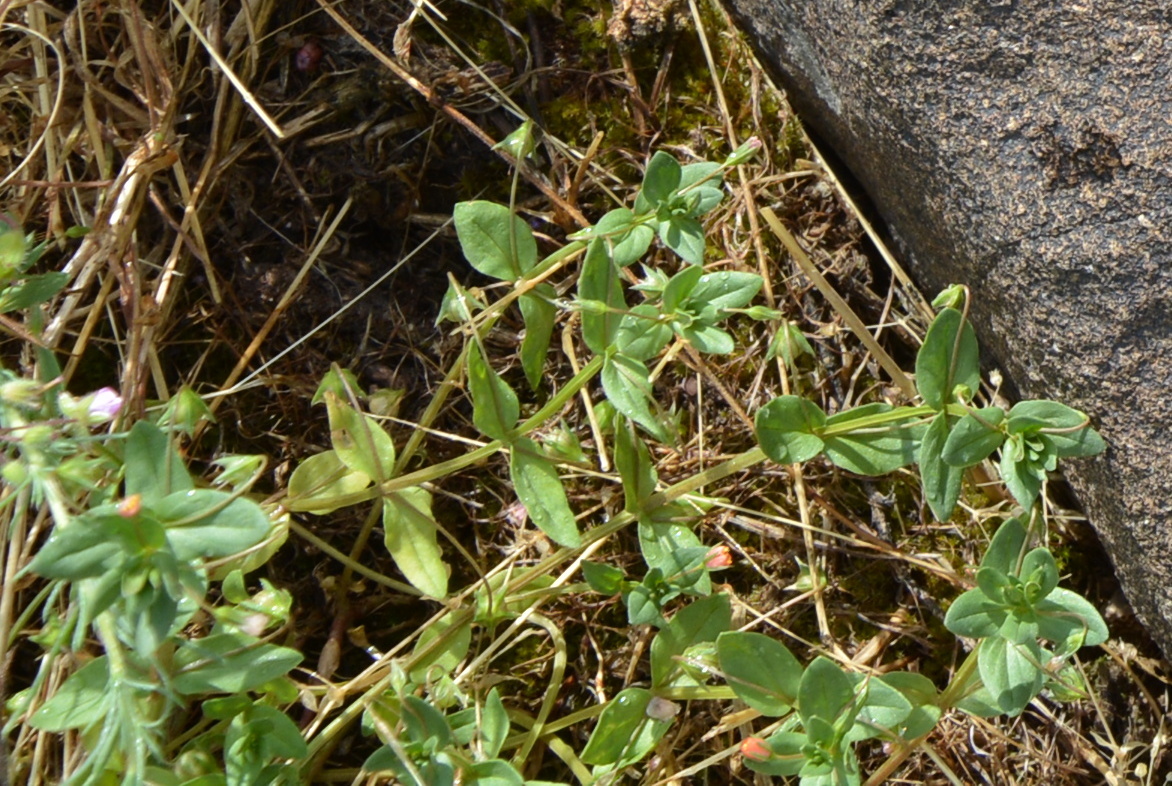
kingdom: Plantae
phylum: Tracheophyta
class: Magnoliopsida
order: Ericales
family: Primulaceae
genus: Lysimachia
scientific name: Lysimachia arvensis
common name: Scarlet pimpernel
